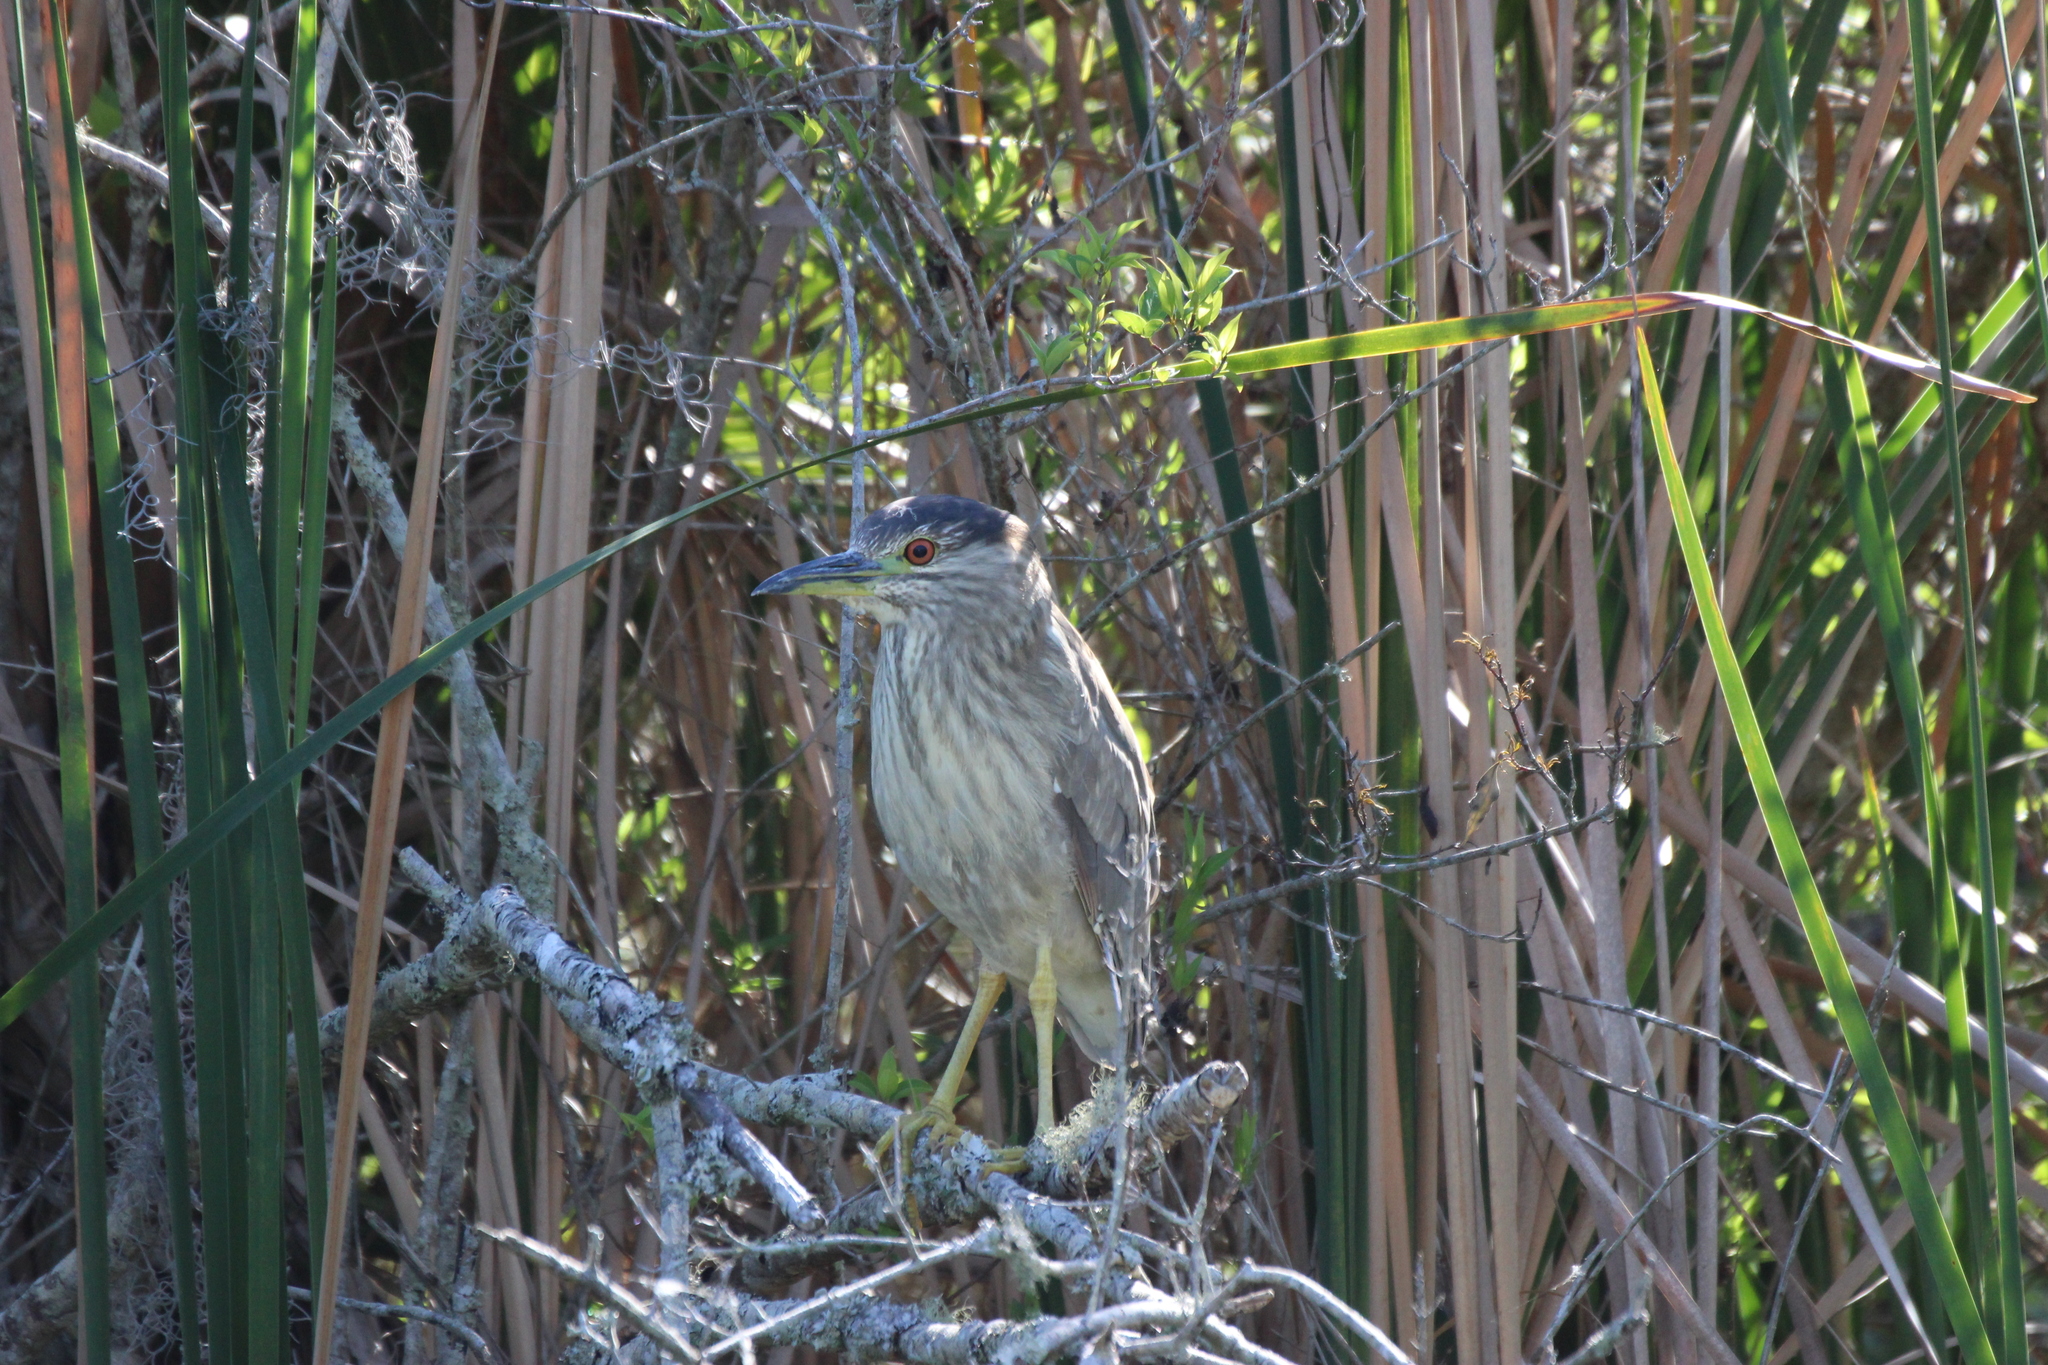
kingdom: Animalia
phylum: Chordata
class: Aves
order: Pelecaniformes
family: Ardeidae
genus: Nycticorax
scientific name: Nycticorax nycticorax
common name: Black-crowned night heron
